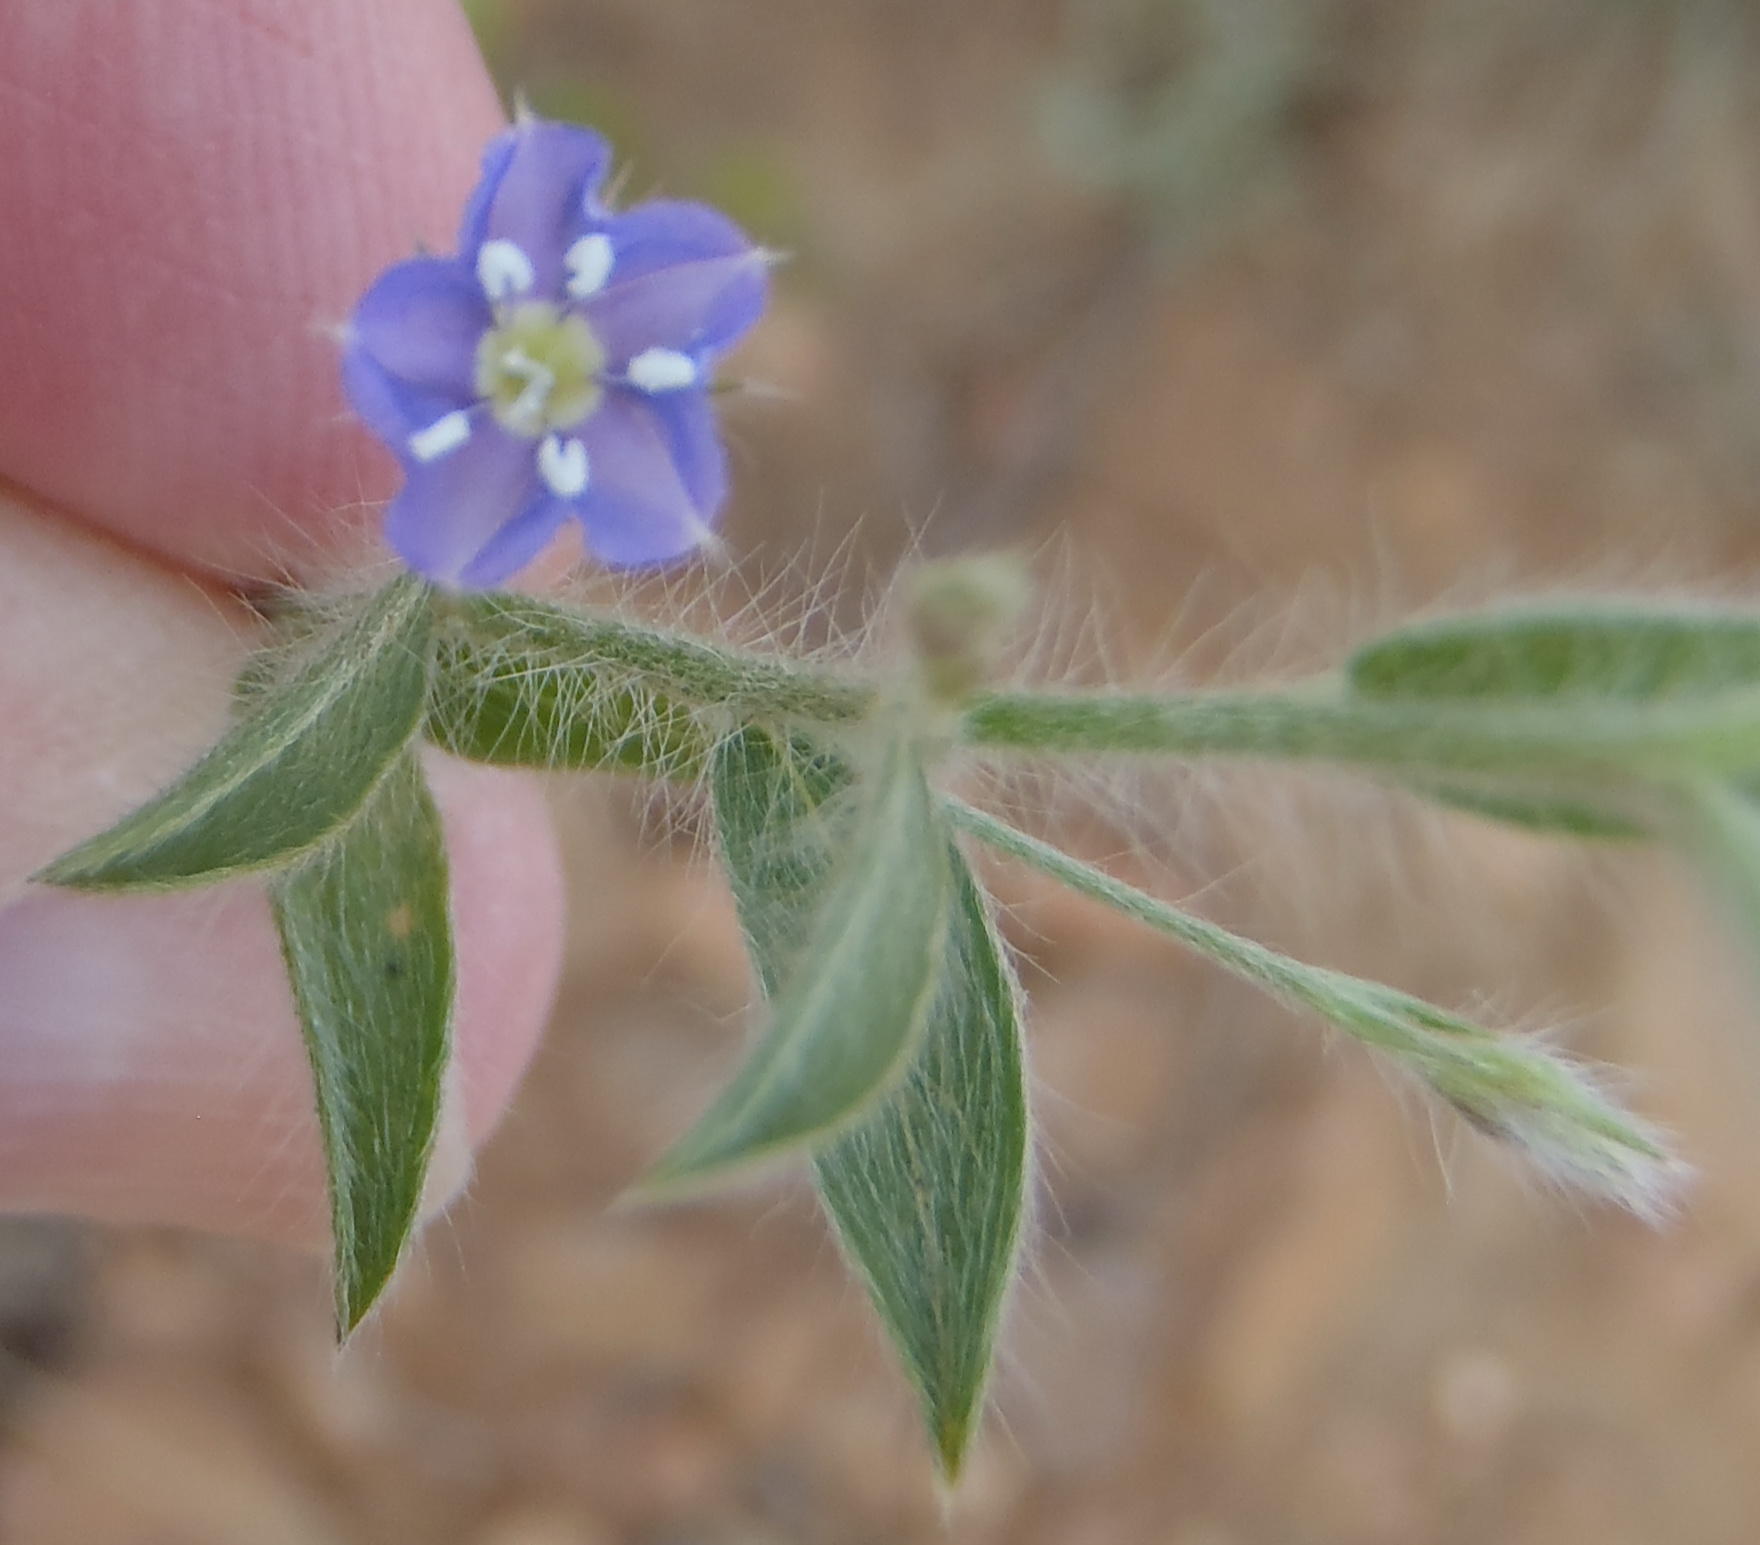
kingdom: Plantae
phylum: Tracheophyta
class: Magnoliopsida
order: Solanales
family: Convolvulaceae
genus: Evolvulus
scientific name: Evolvulus alsinoides
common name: Slender dwarf morning-glory
